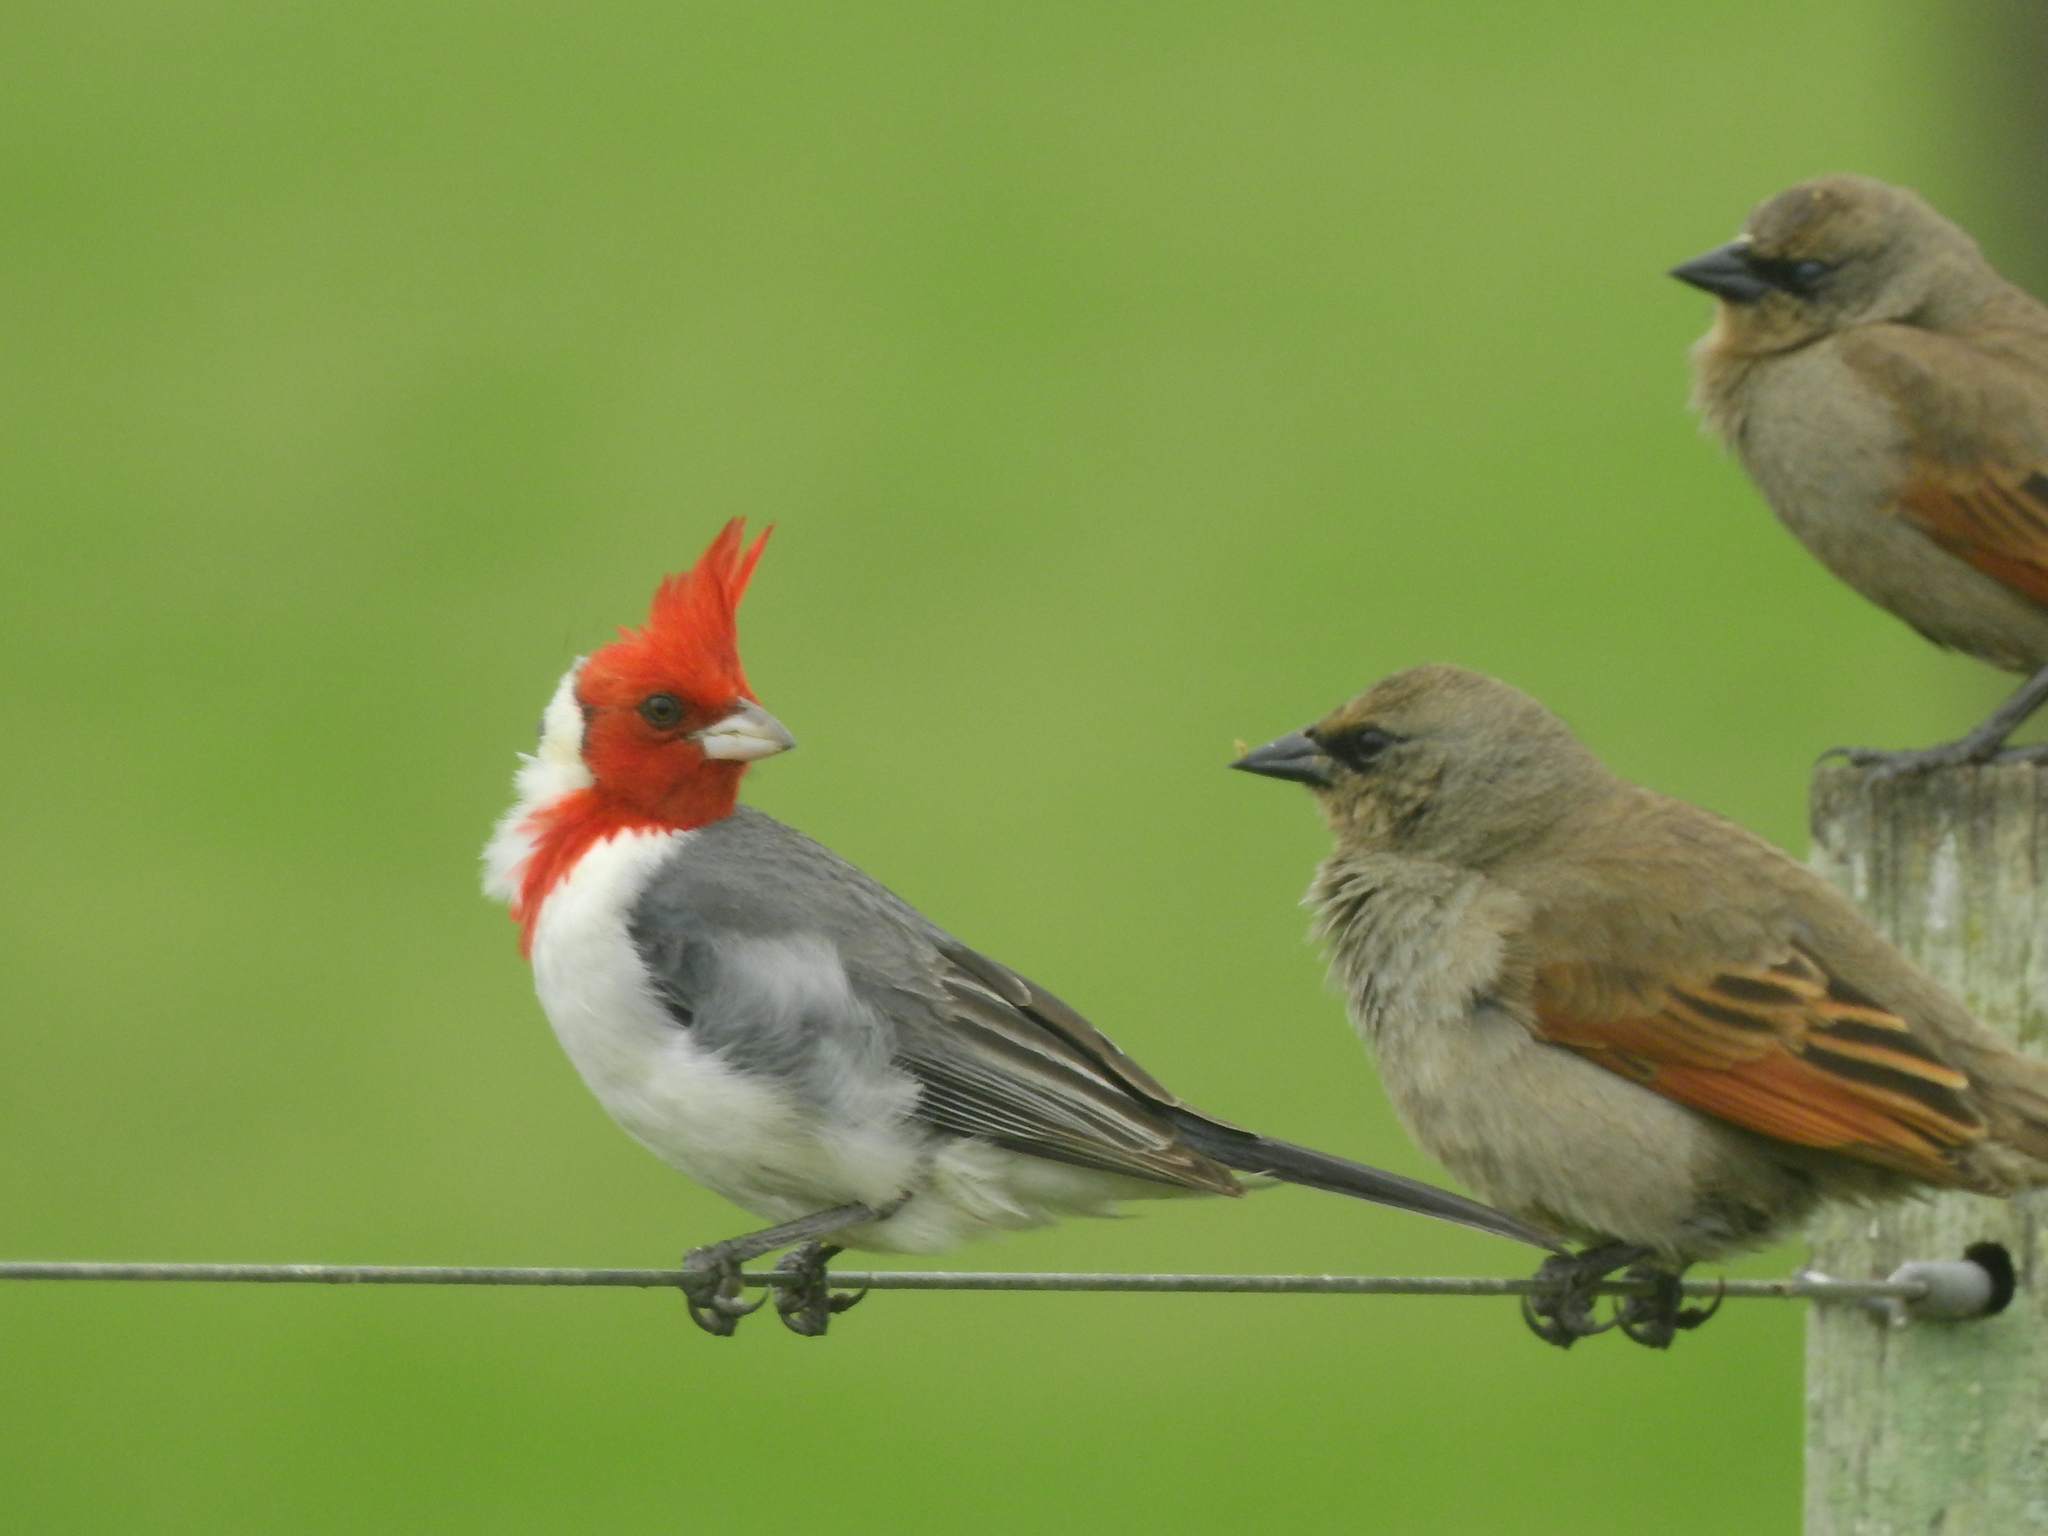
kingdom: Animalia
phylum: Chordata
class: Aves
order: Passeriformes
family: Thraupidae
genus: Paroaria
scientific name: Paroaria coronata
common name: Red-crested cardinal
